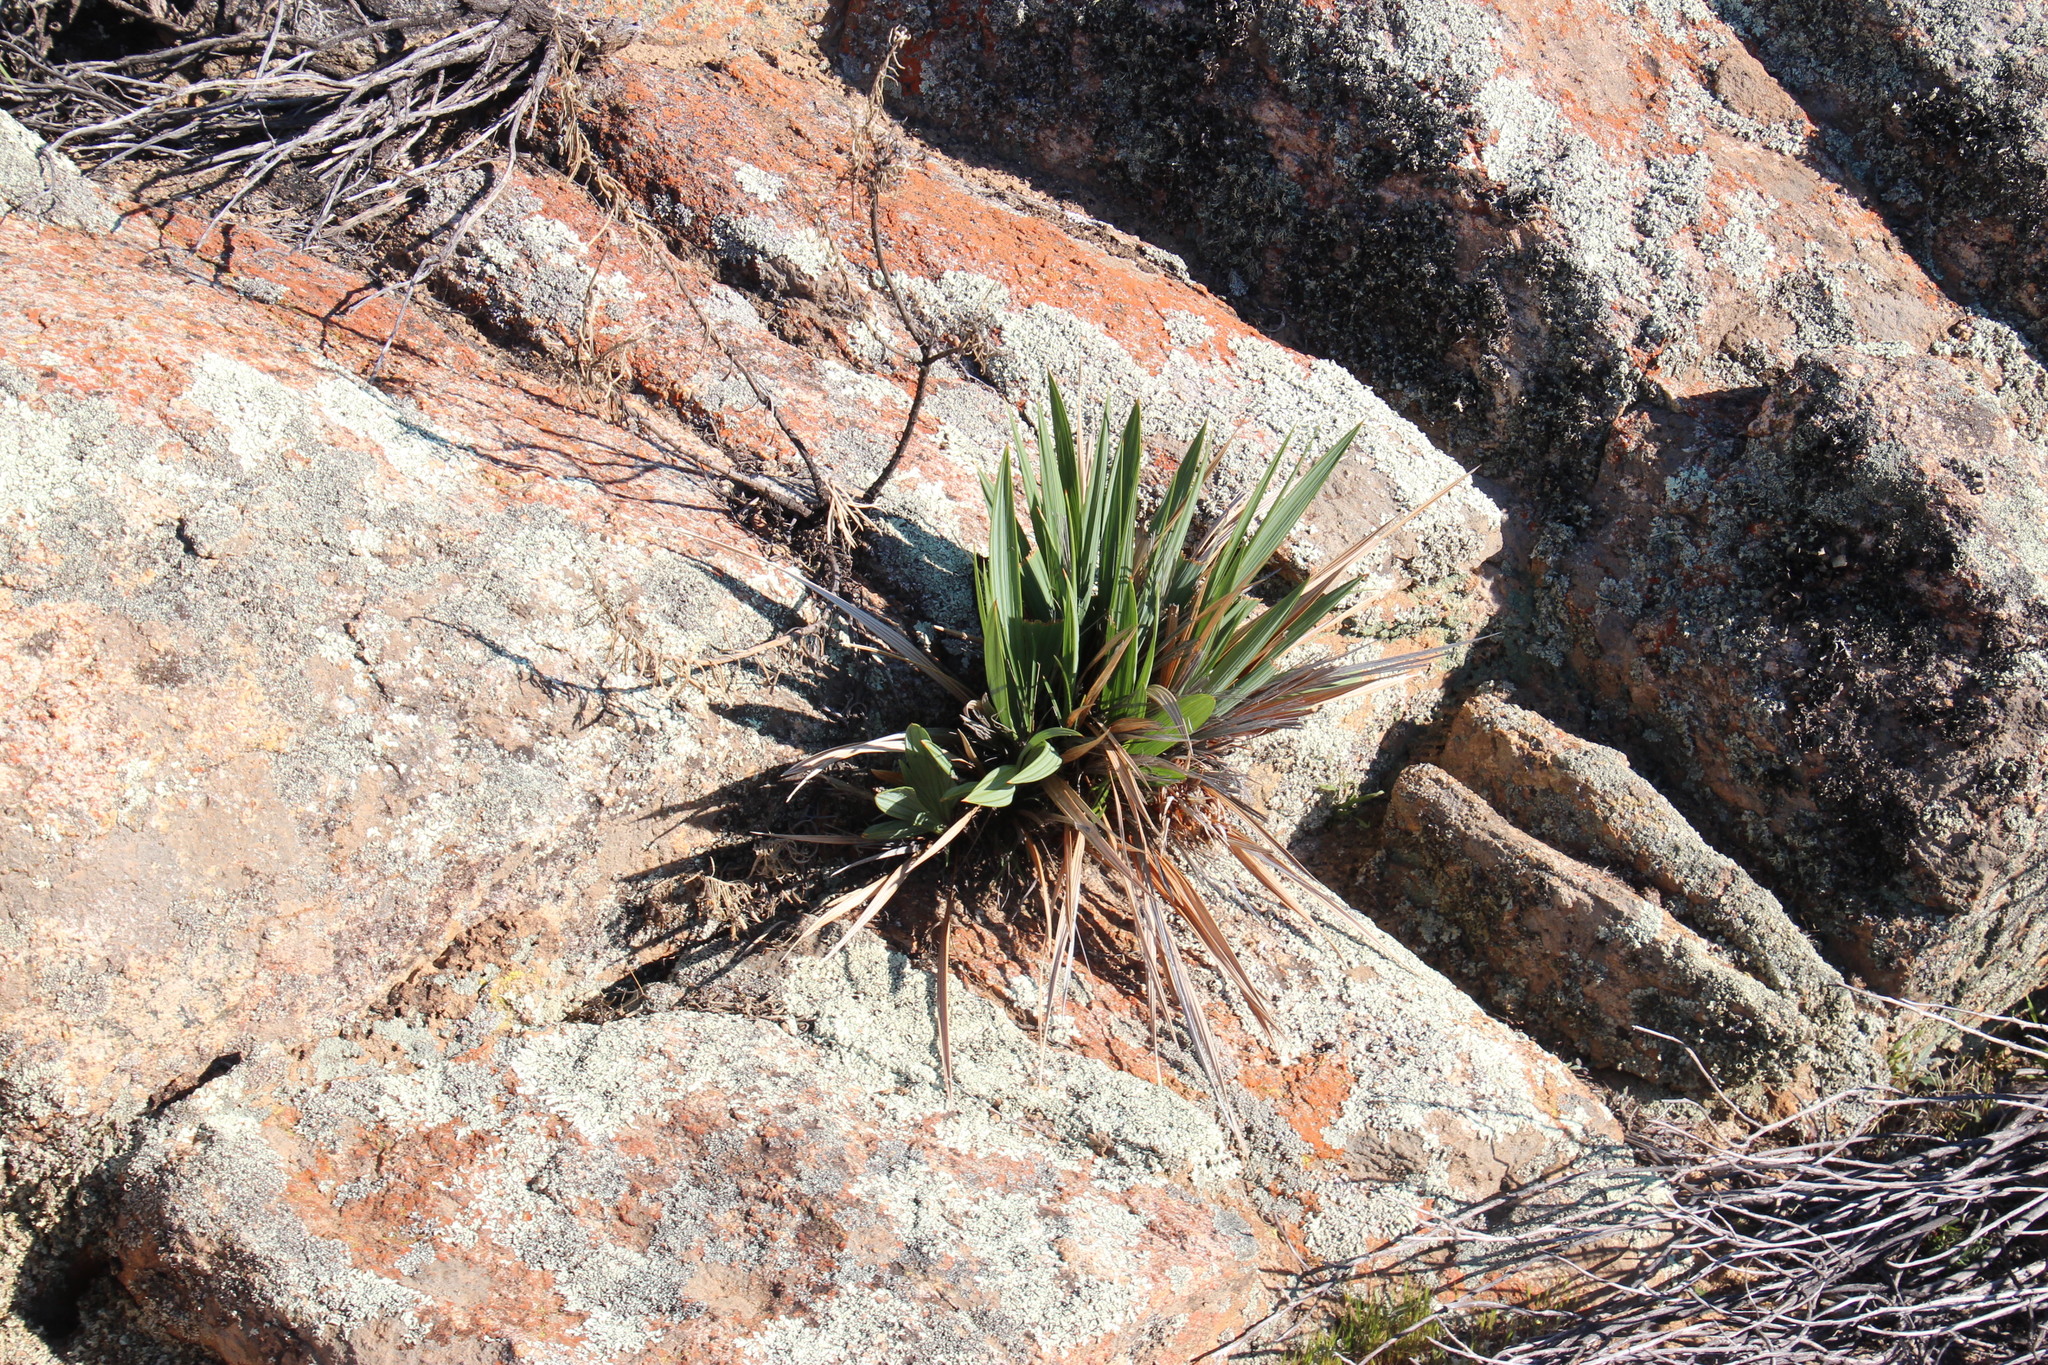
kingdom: Plantae
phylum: Tracheophyta
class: Liliopsida
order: Asparagales
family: Iridaceae
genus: Babiana
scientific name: Babiana dregei
